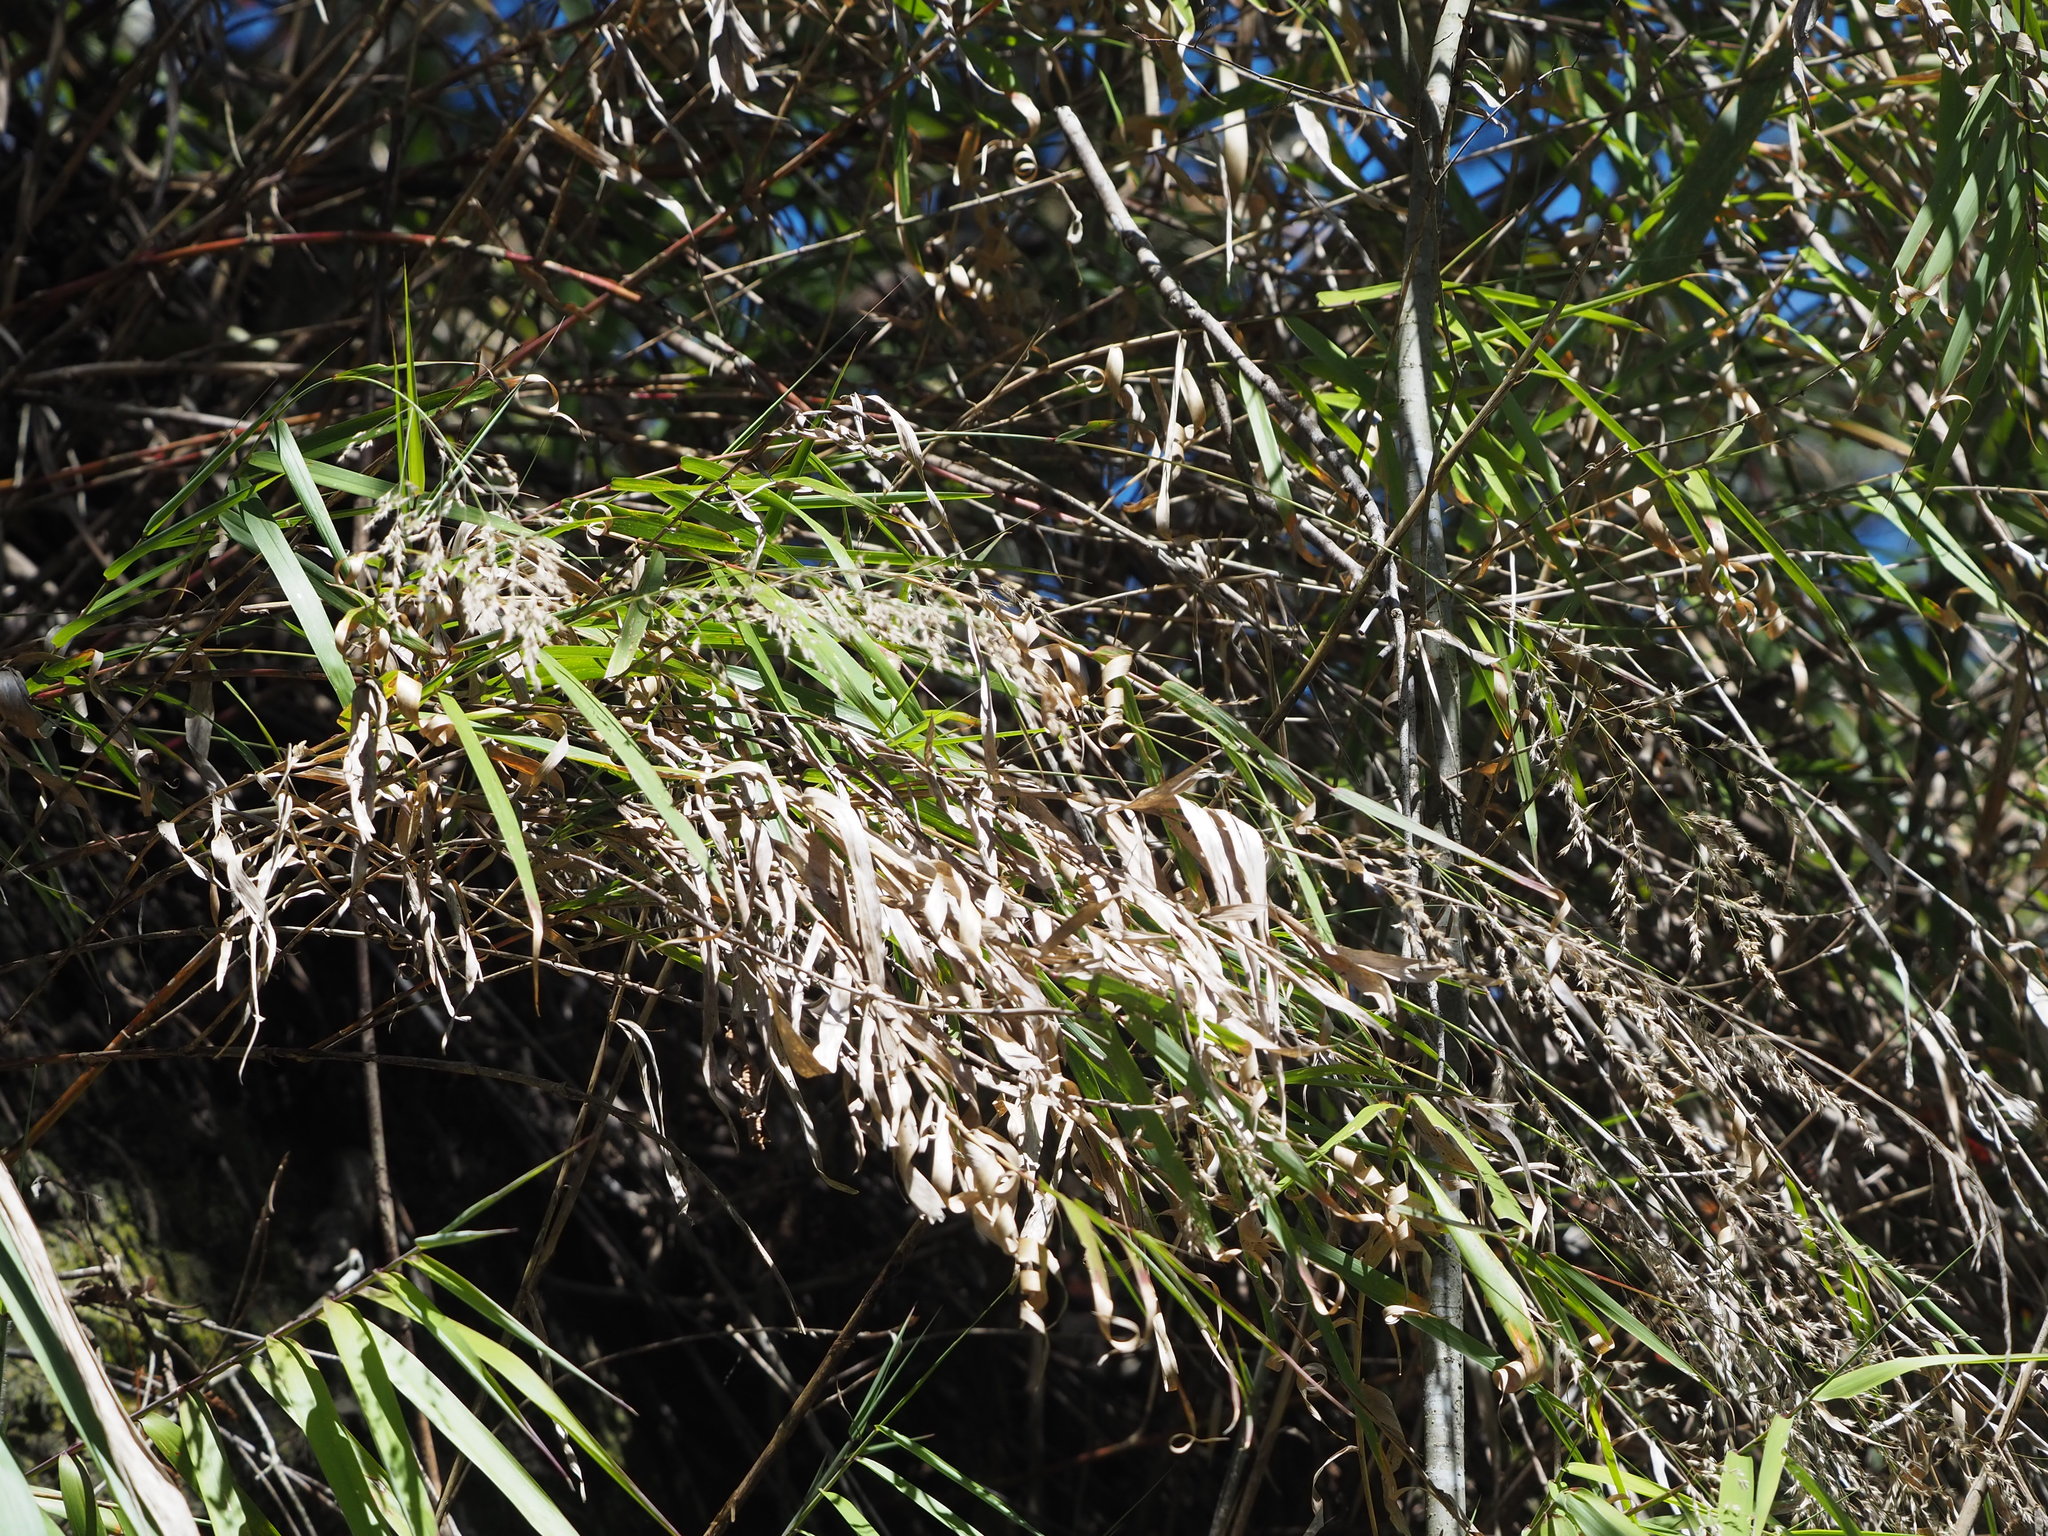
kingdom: Plantae
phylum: Tracheophyta
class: Liliopsida
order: Poales
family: Poaceae
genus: Arundo
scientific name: Arundo formosana
